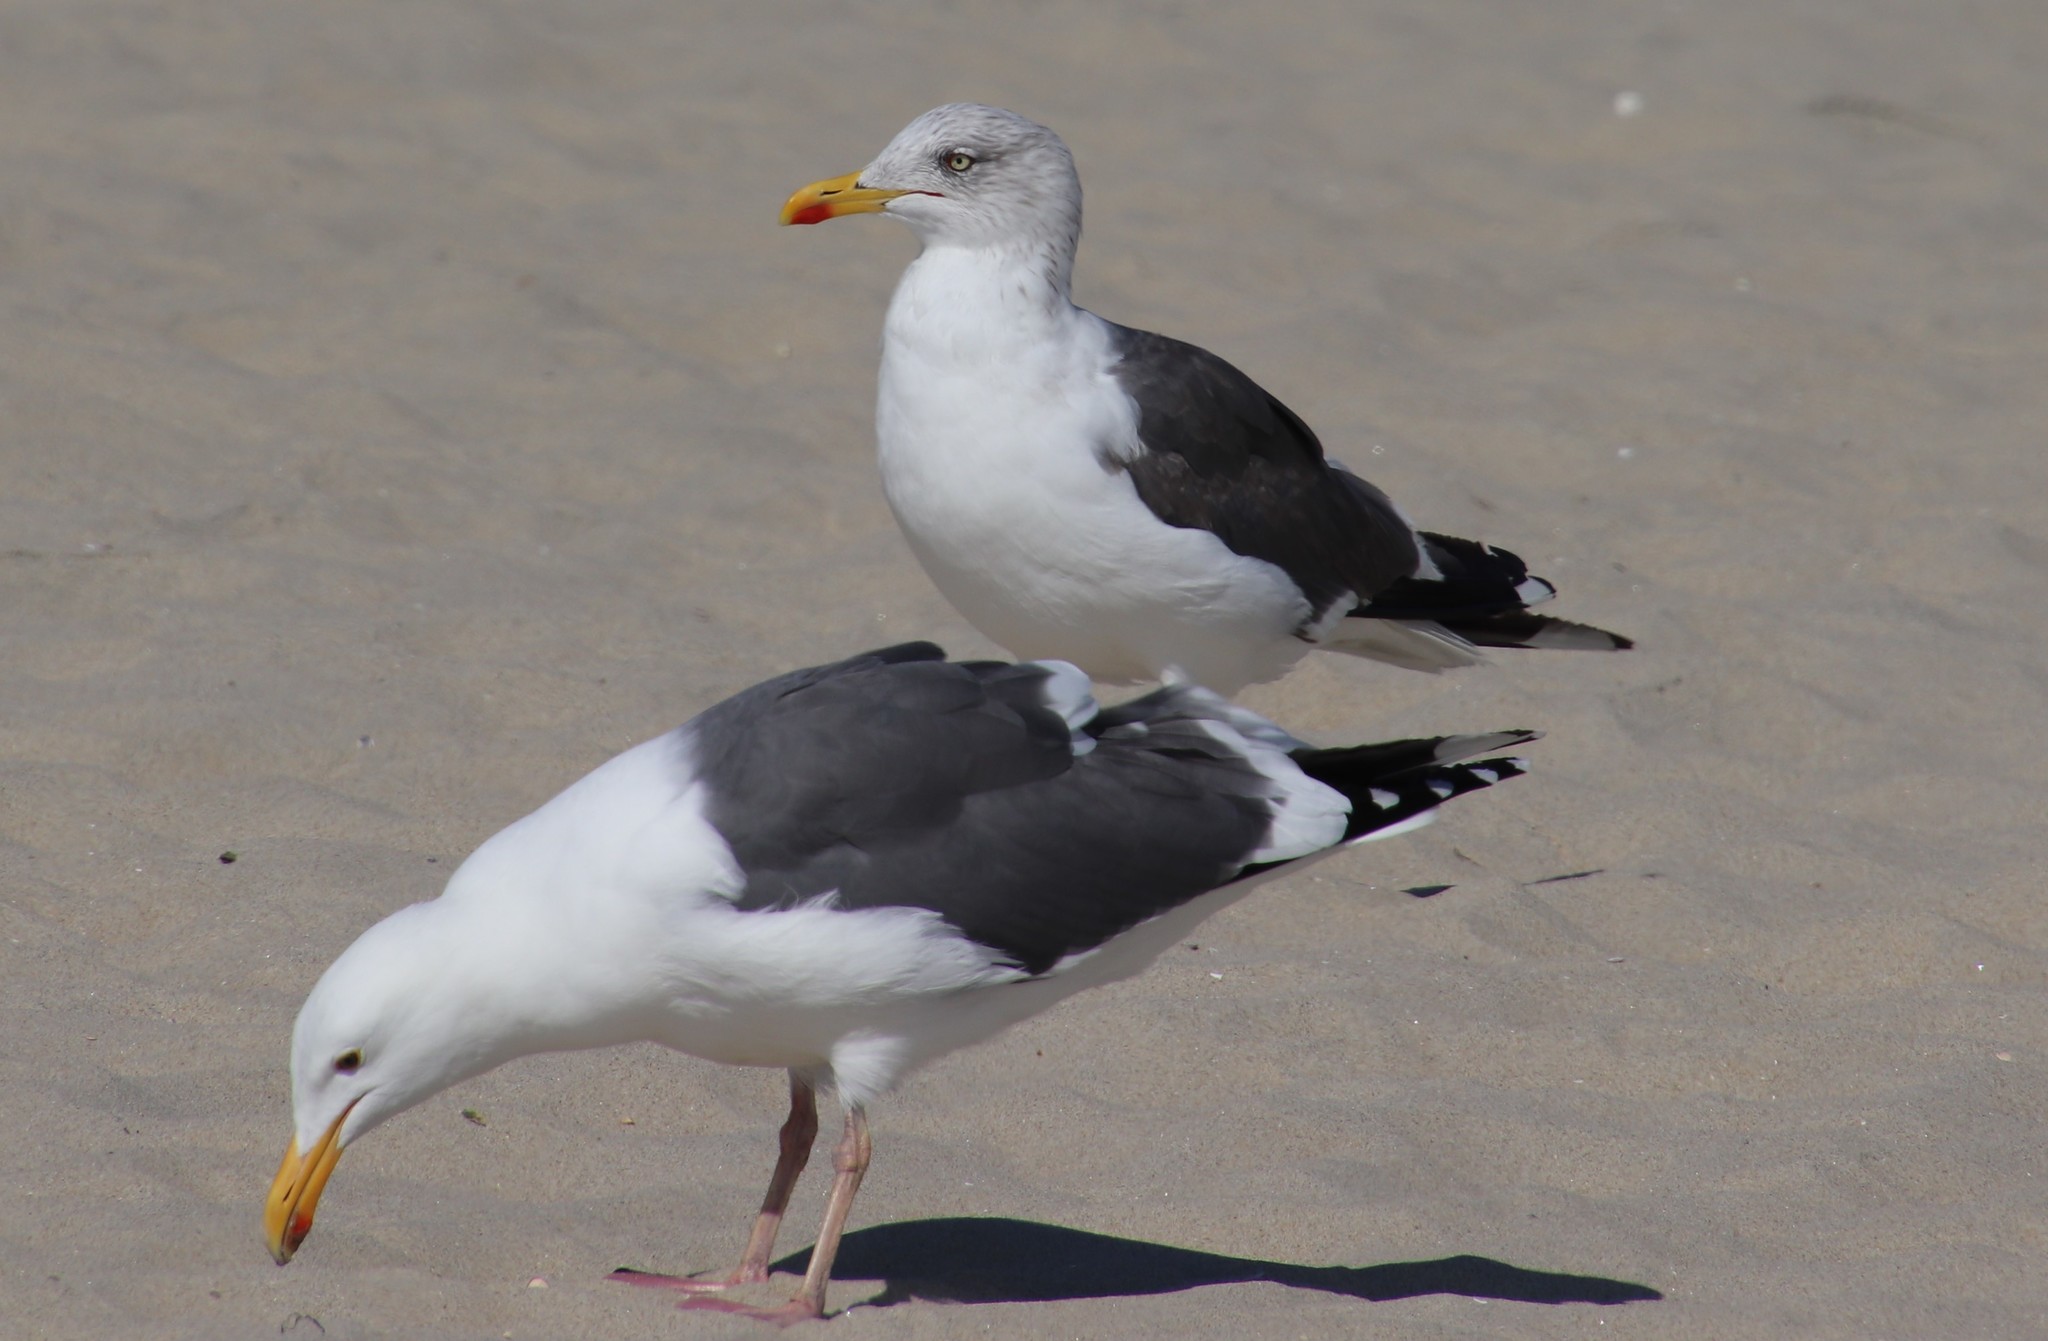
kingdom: Animalia
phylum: Chordata
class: Aves
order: Charadriiformes
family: Laridae
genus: Larus
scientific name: Larus fuscus
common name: Lesser black-backed gull
